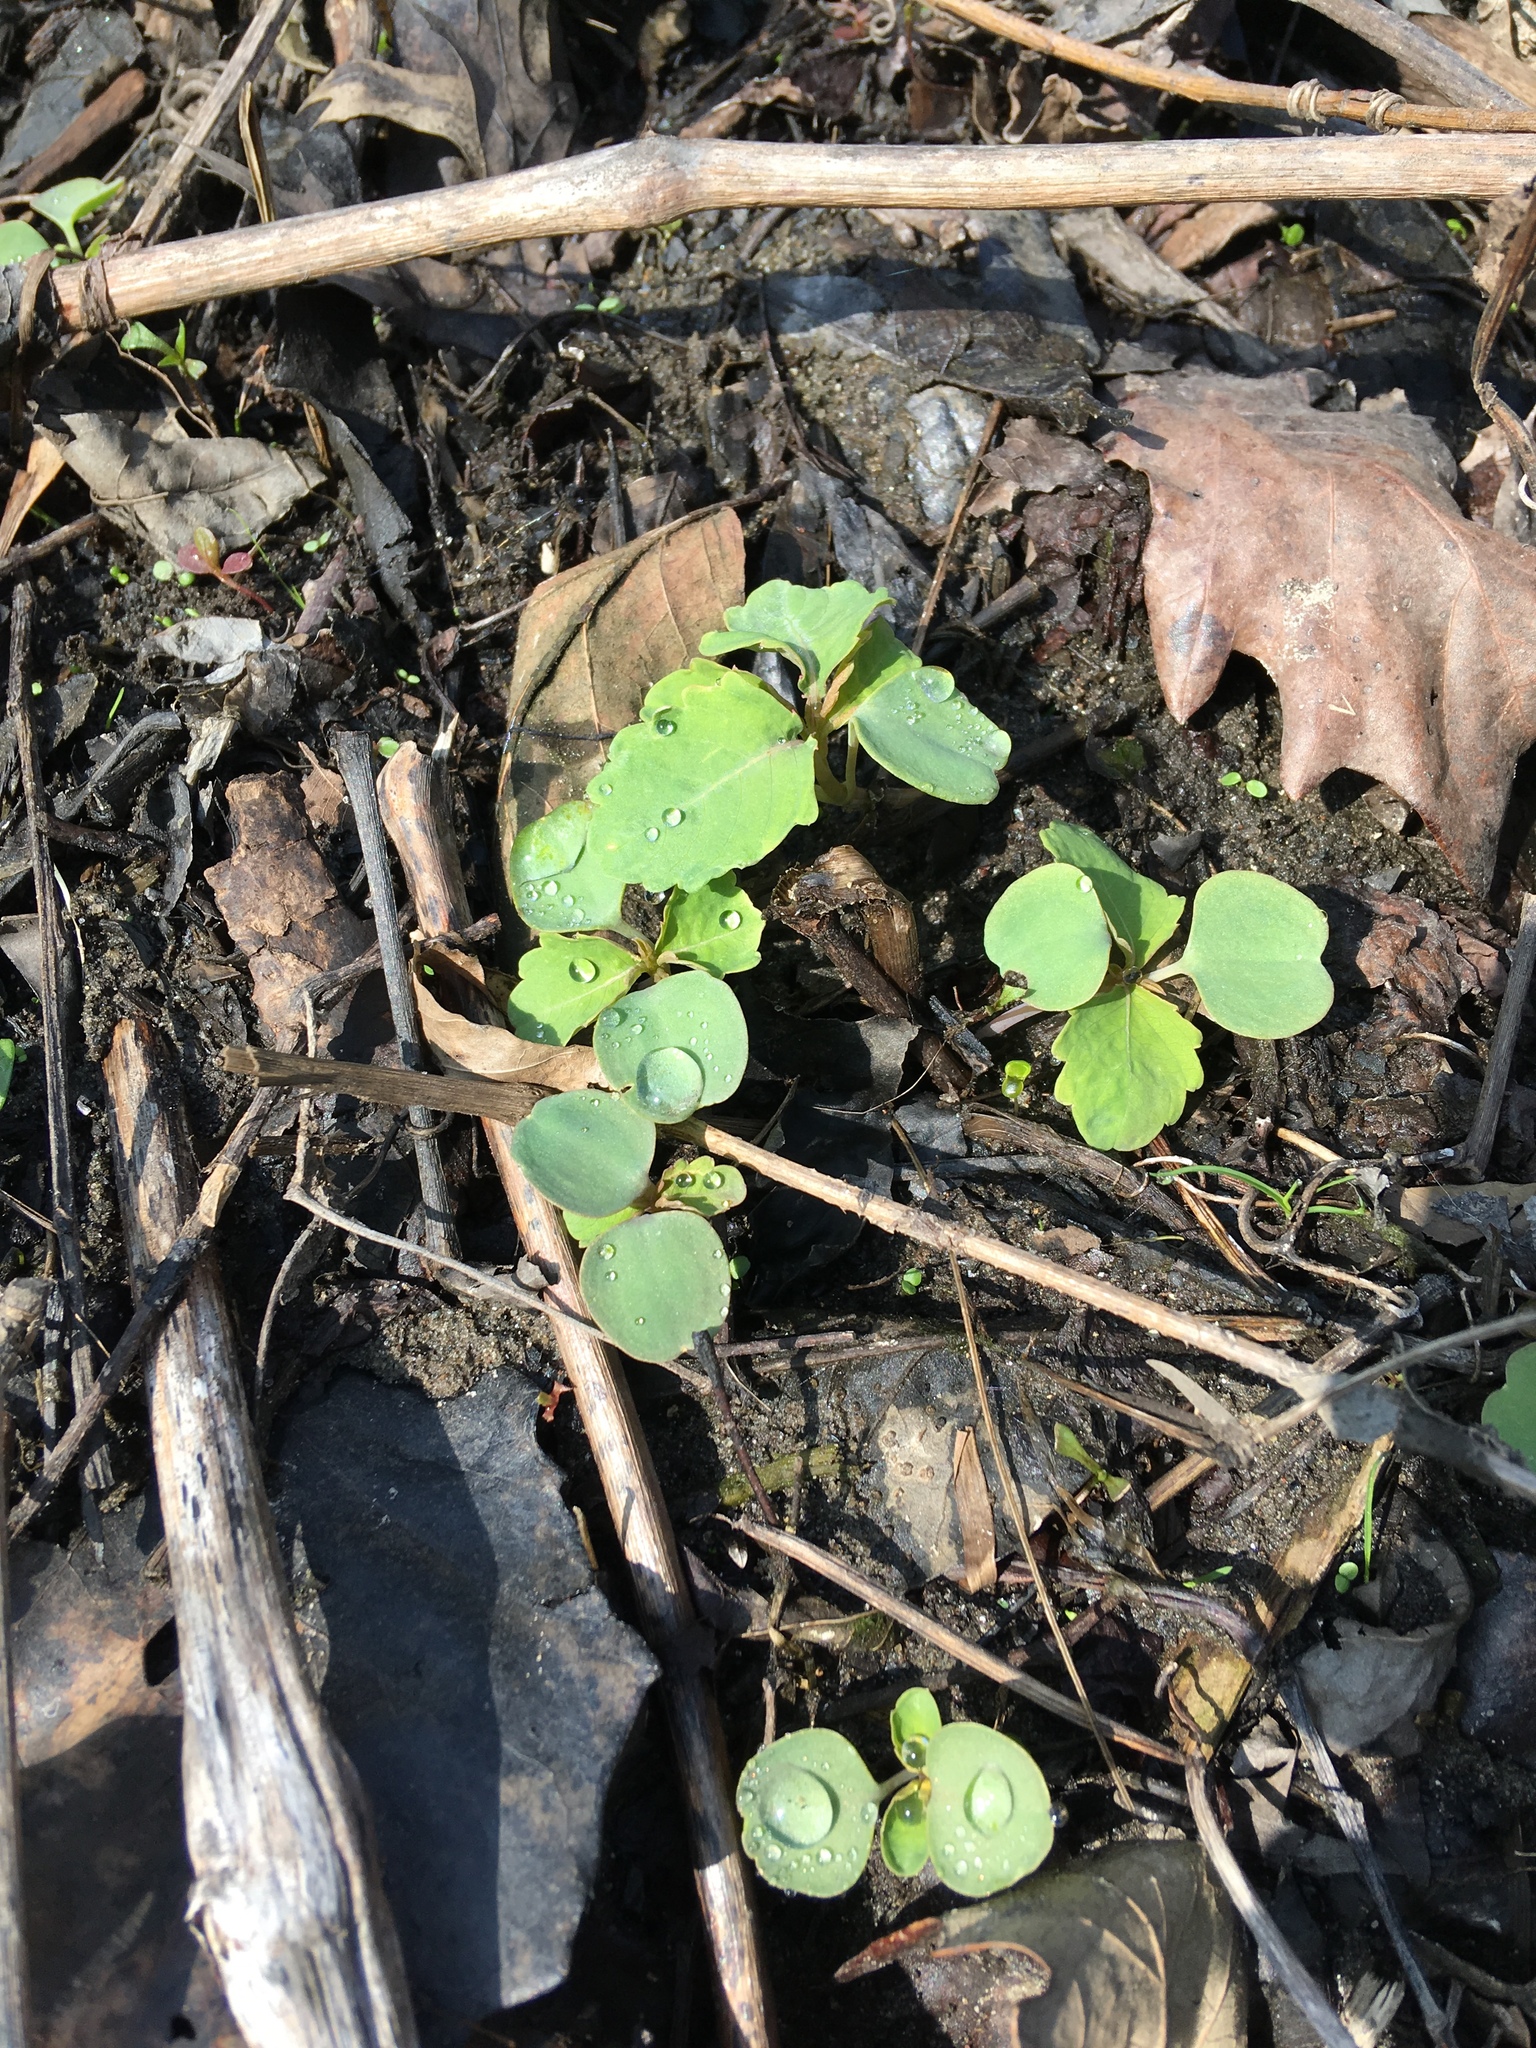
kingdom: Plantae
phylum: Tracheophyta
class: Magnoliopsida
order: Ericales
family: Balsaminaceae
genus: Impatiens
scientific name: Impatiens
